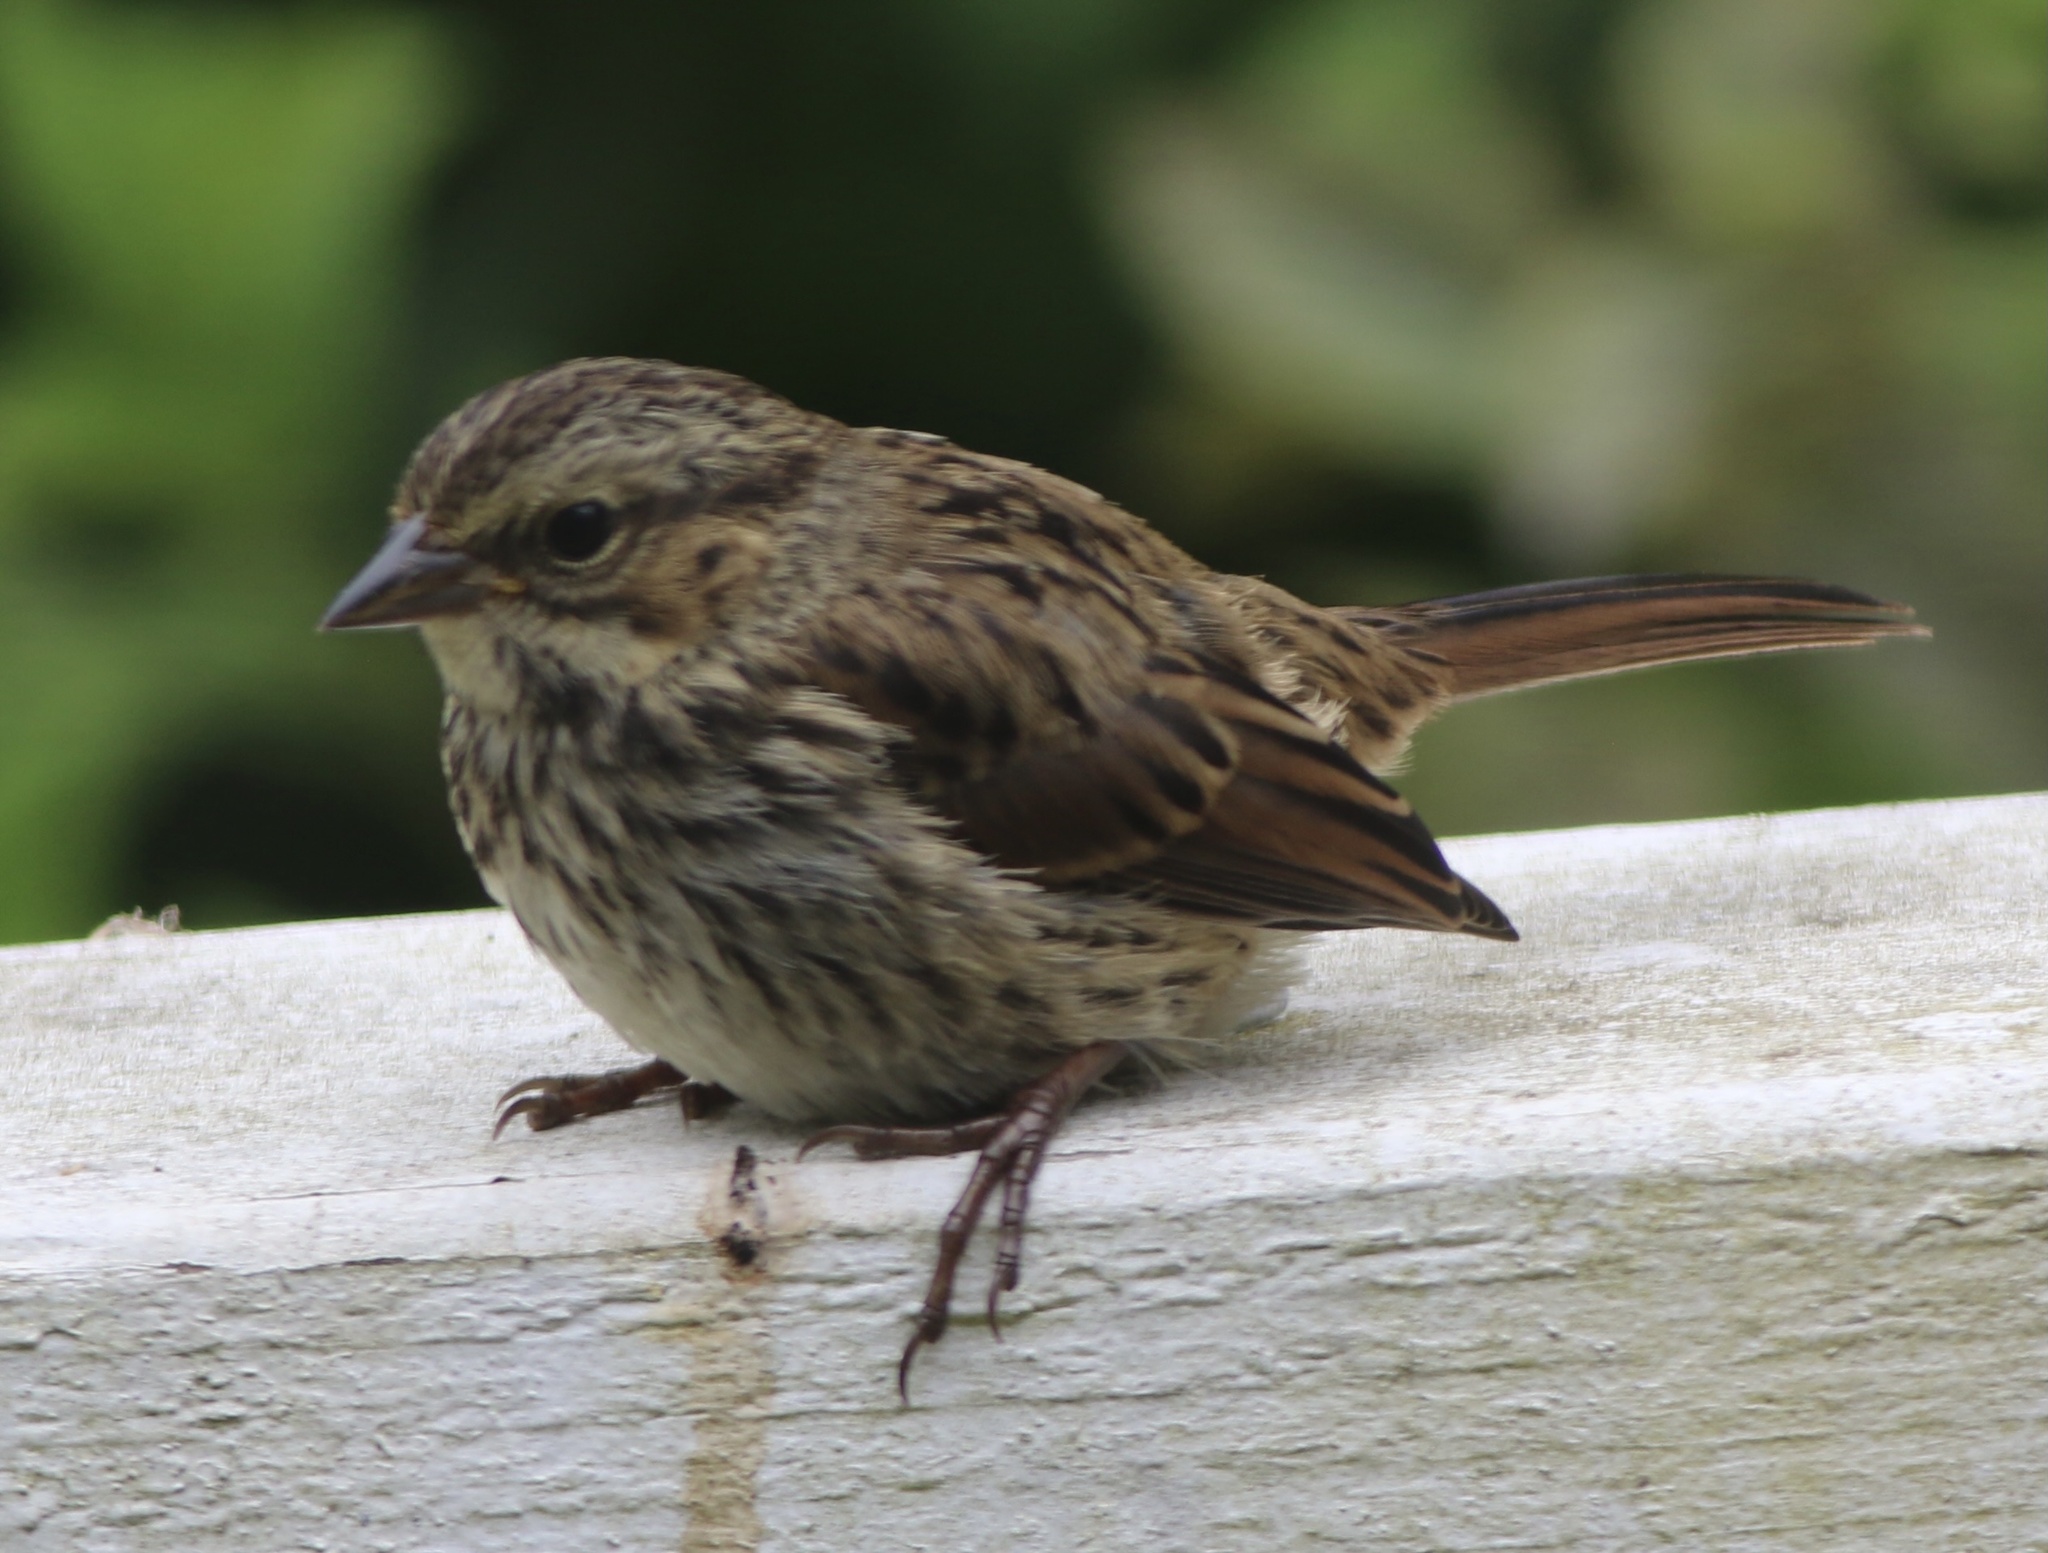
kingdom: Animalia
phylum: Chordata
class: Aves
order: Passeriformes
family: Passerellidae
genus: Melospiza
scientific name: Melospiza melodia
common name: Song sparrow
